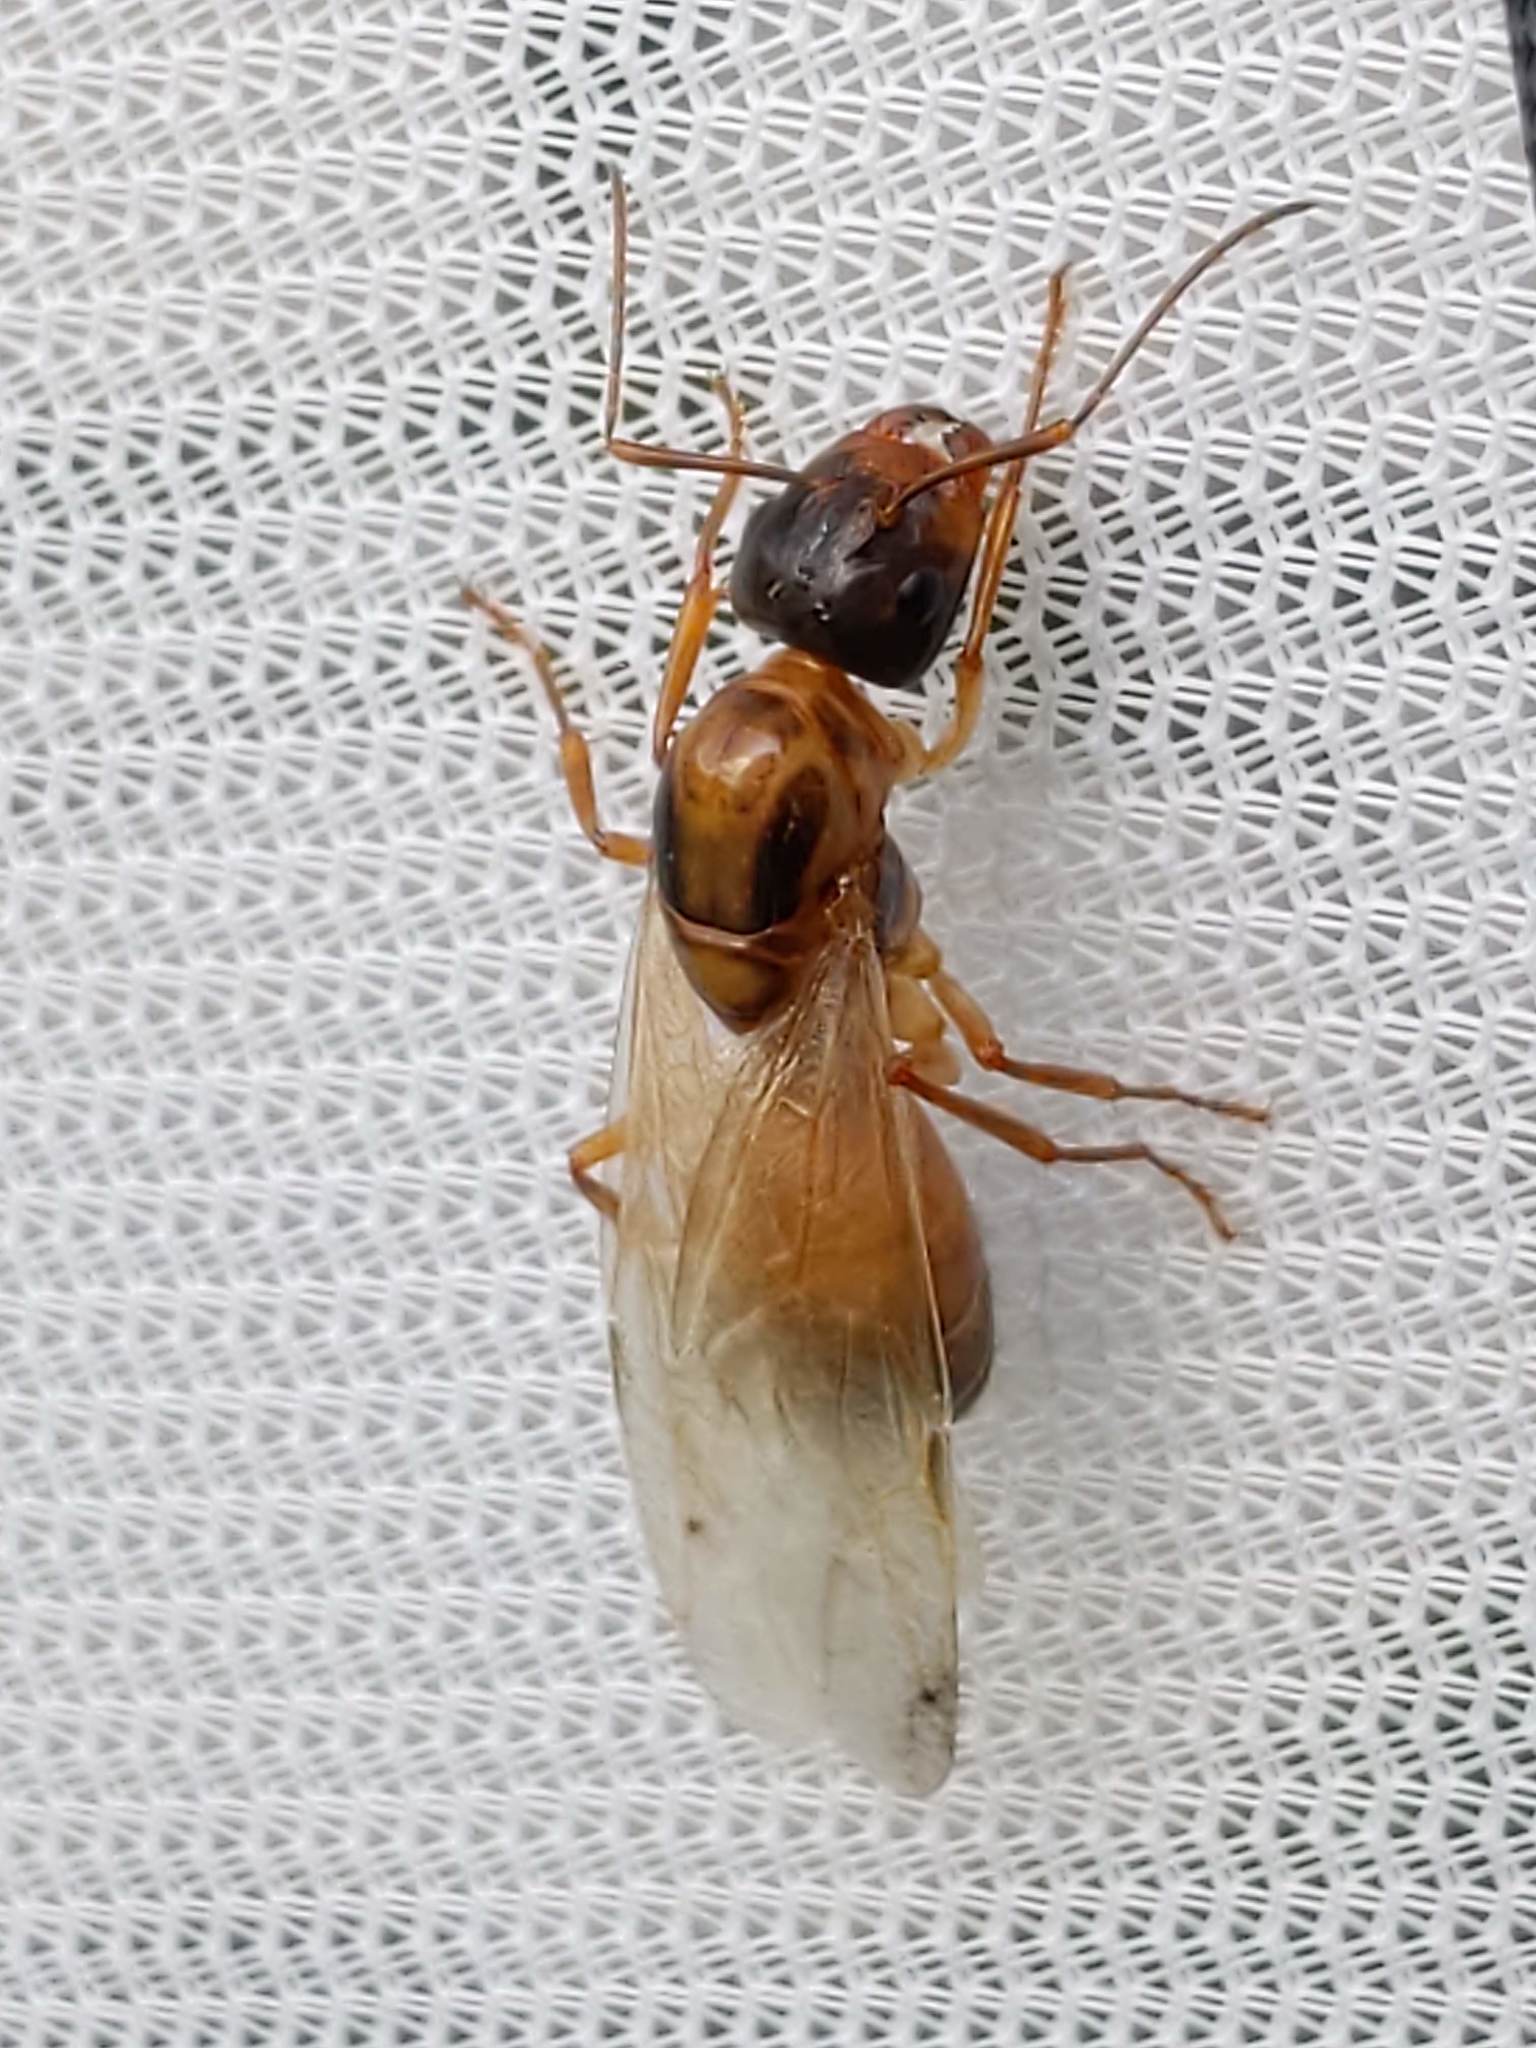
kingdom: Animalia
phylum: Arthropoda
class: Insecta
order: Hymenoptera
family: Formicidae
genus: Camponotus
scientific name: Camponotus americanus
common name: American carpenter ant
